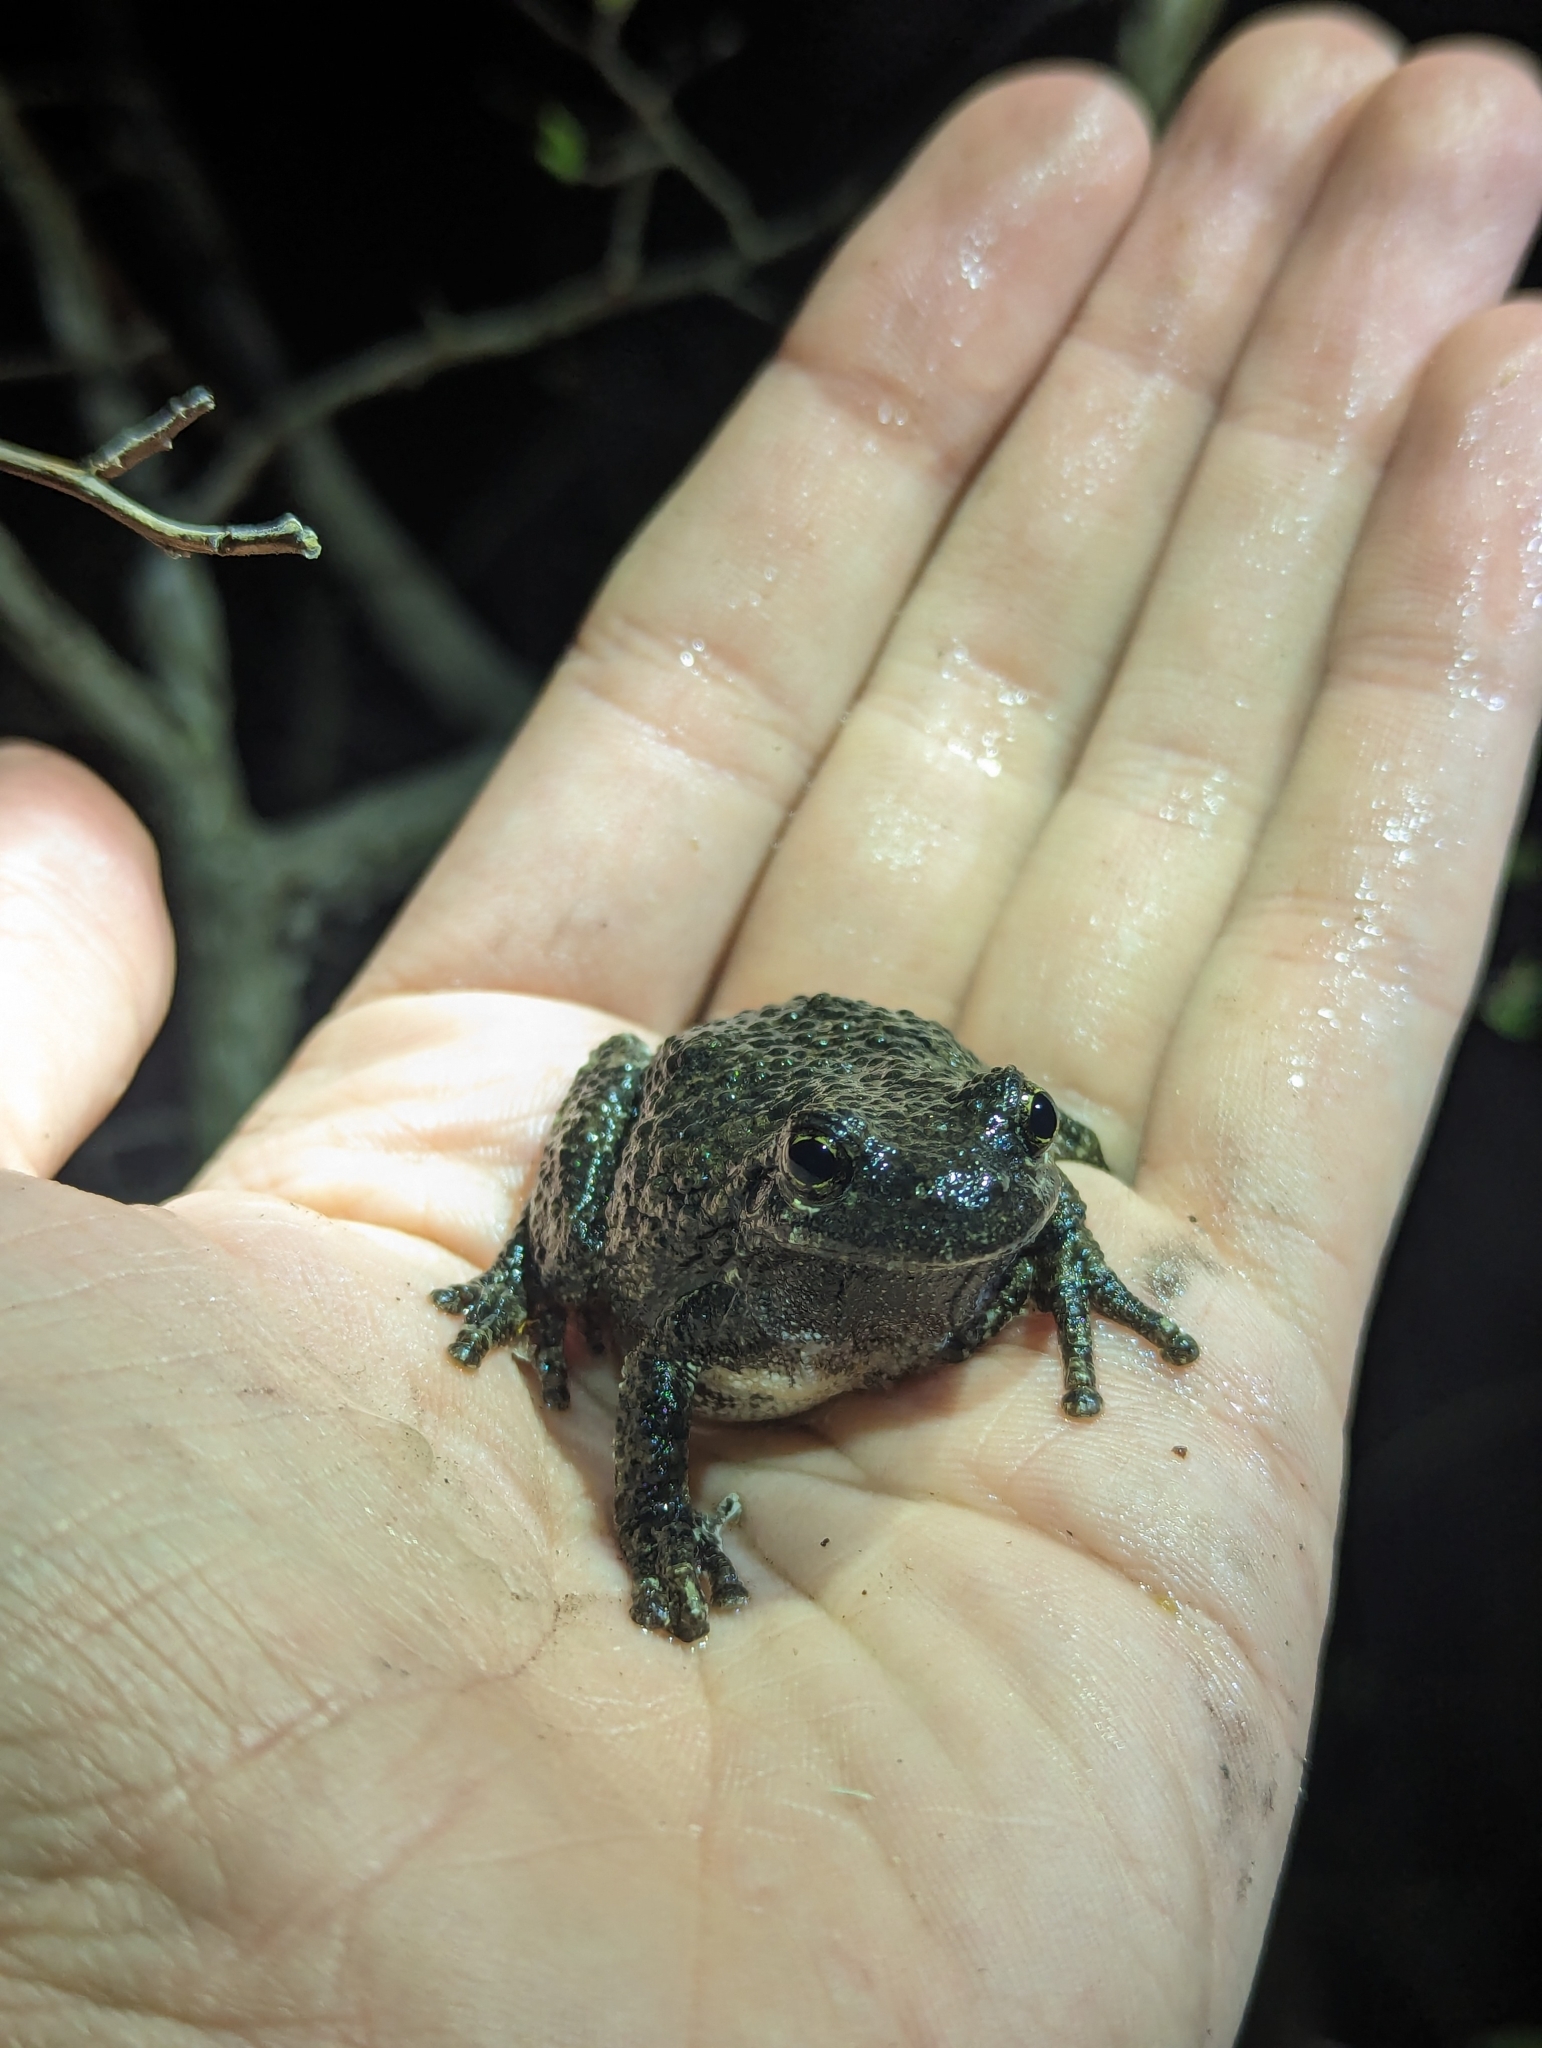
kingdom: Animalia
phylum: Chordata
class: Amphibia
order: Anura
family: Hylidae
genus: Dryophytes
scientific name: Dryophytes versicolor
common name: Gray treefrog
